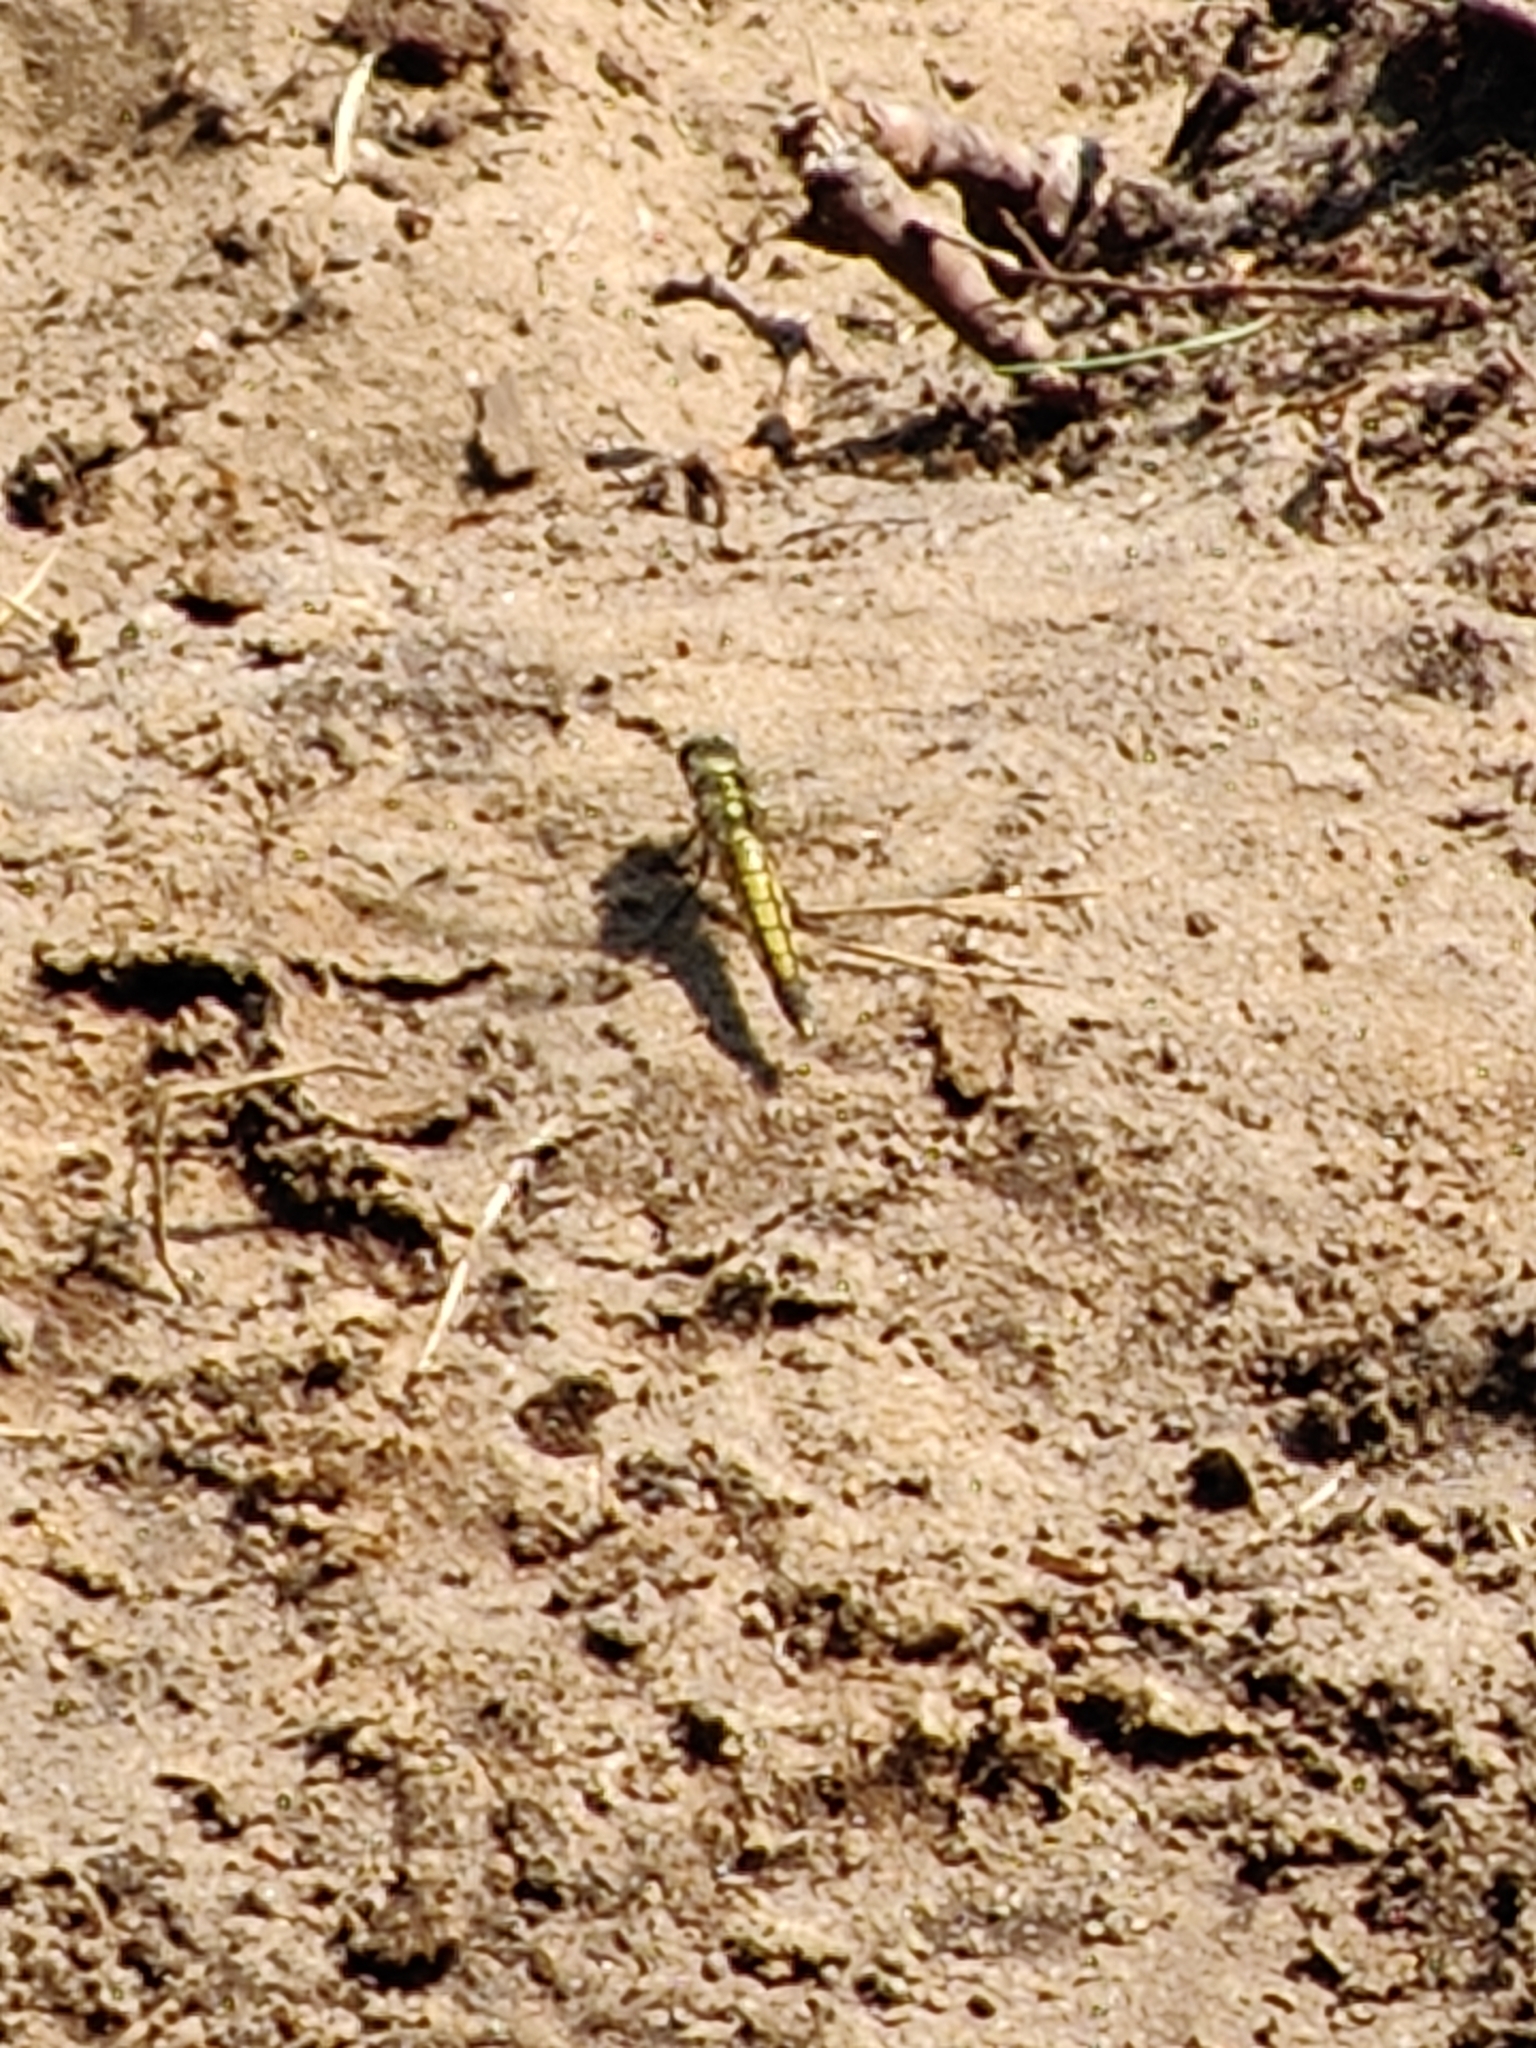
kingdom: Animalia
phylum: Arthropoda
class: Insecta
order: Odonata
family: Libellulidae
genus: Orthetrum
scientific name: Orthetrum cancellatum
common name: Black-tailed skimmer
